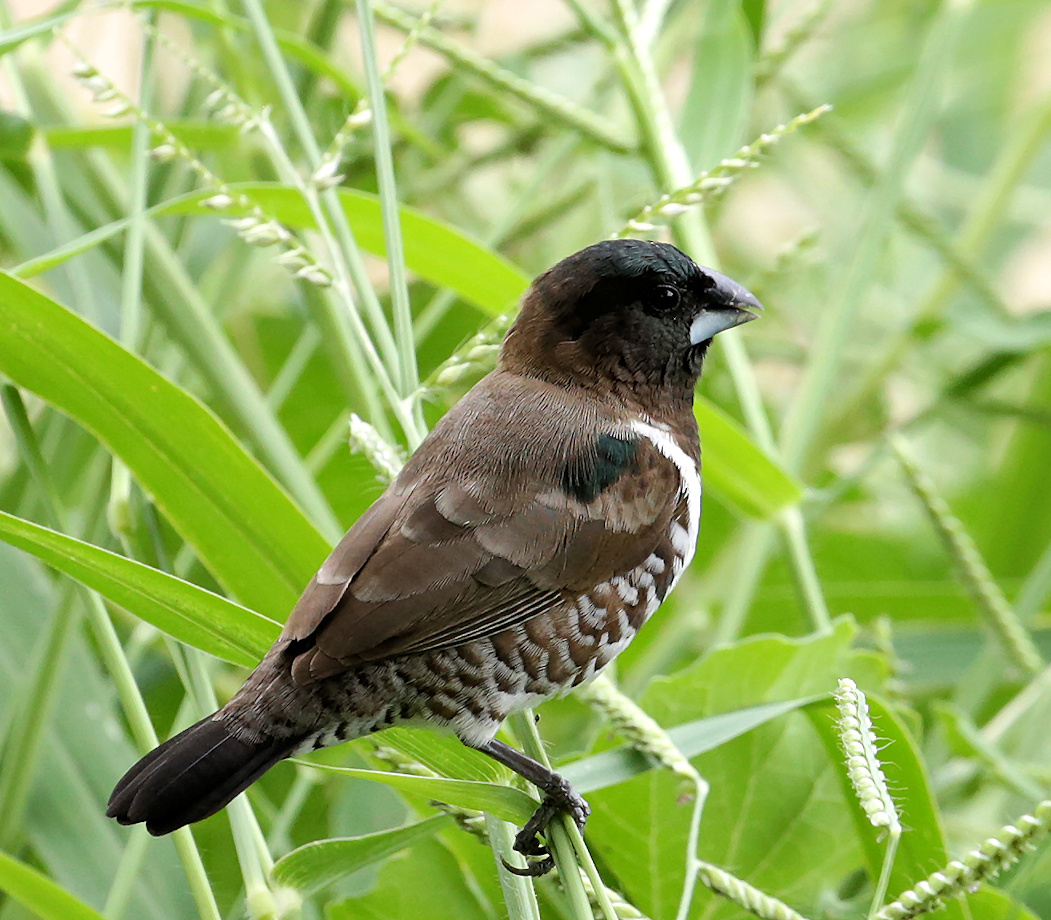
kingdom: Animalia
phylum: Chordata
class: Aves
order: Passeriformes
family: Estrildidae
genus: Lonchura
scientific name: Lonchura cucullata
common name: Bronze mannikin
